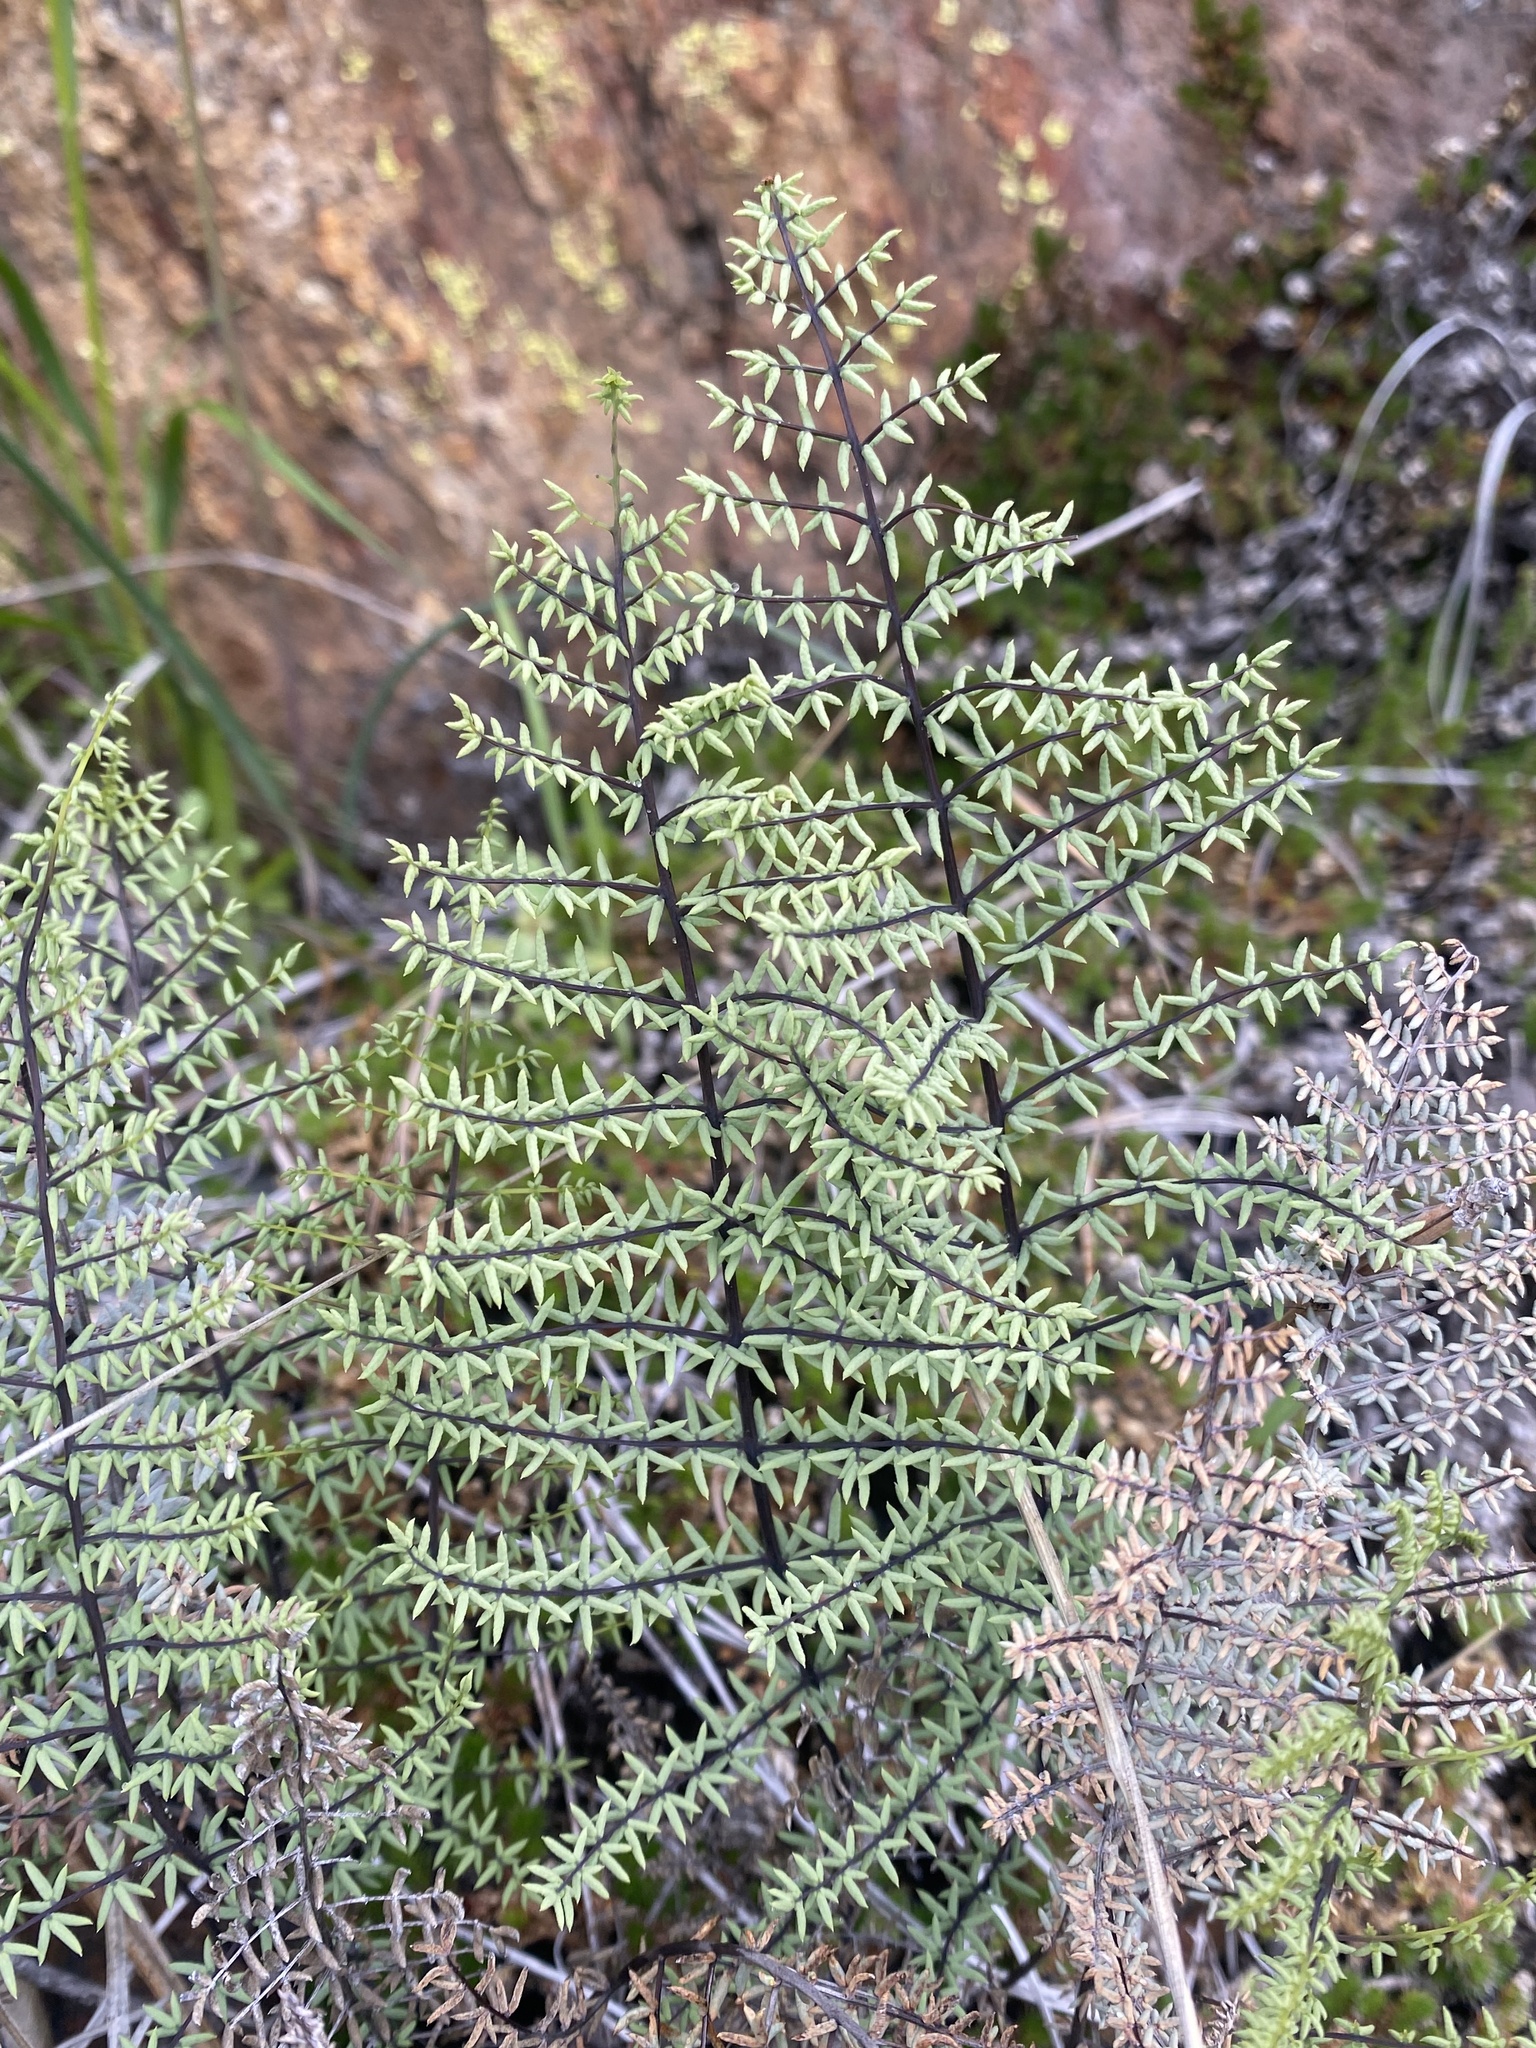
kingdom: Plantae
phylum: Tracheophyta
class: Polypodiopsida
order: Polypodiales
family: Pteridaceae
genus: Pellaea
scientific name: Pellaea mucronata
